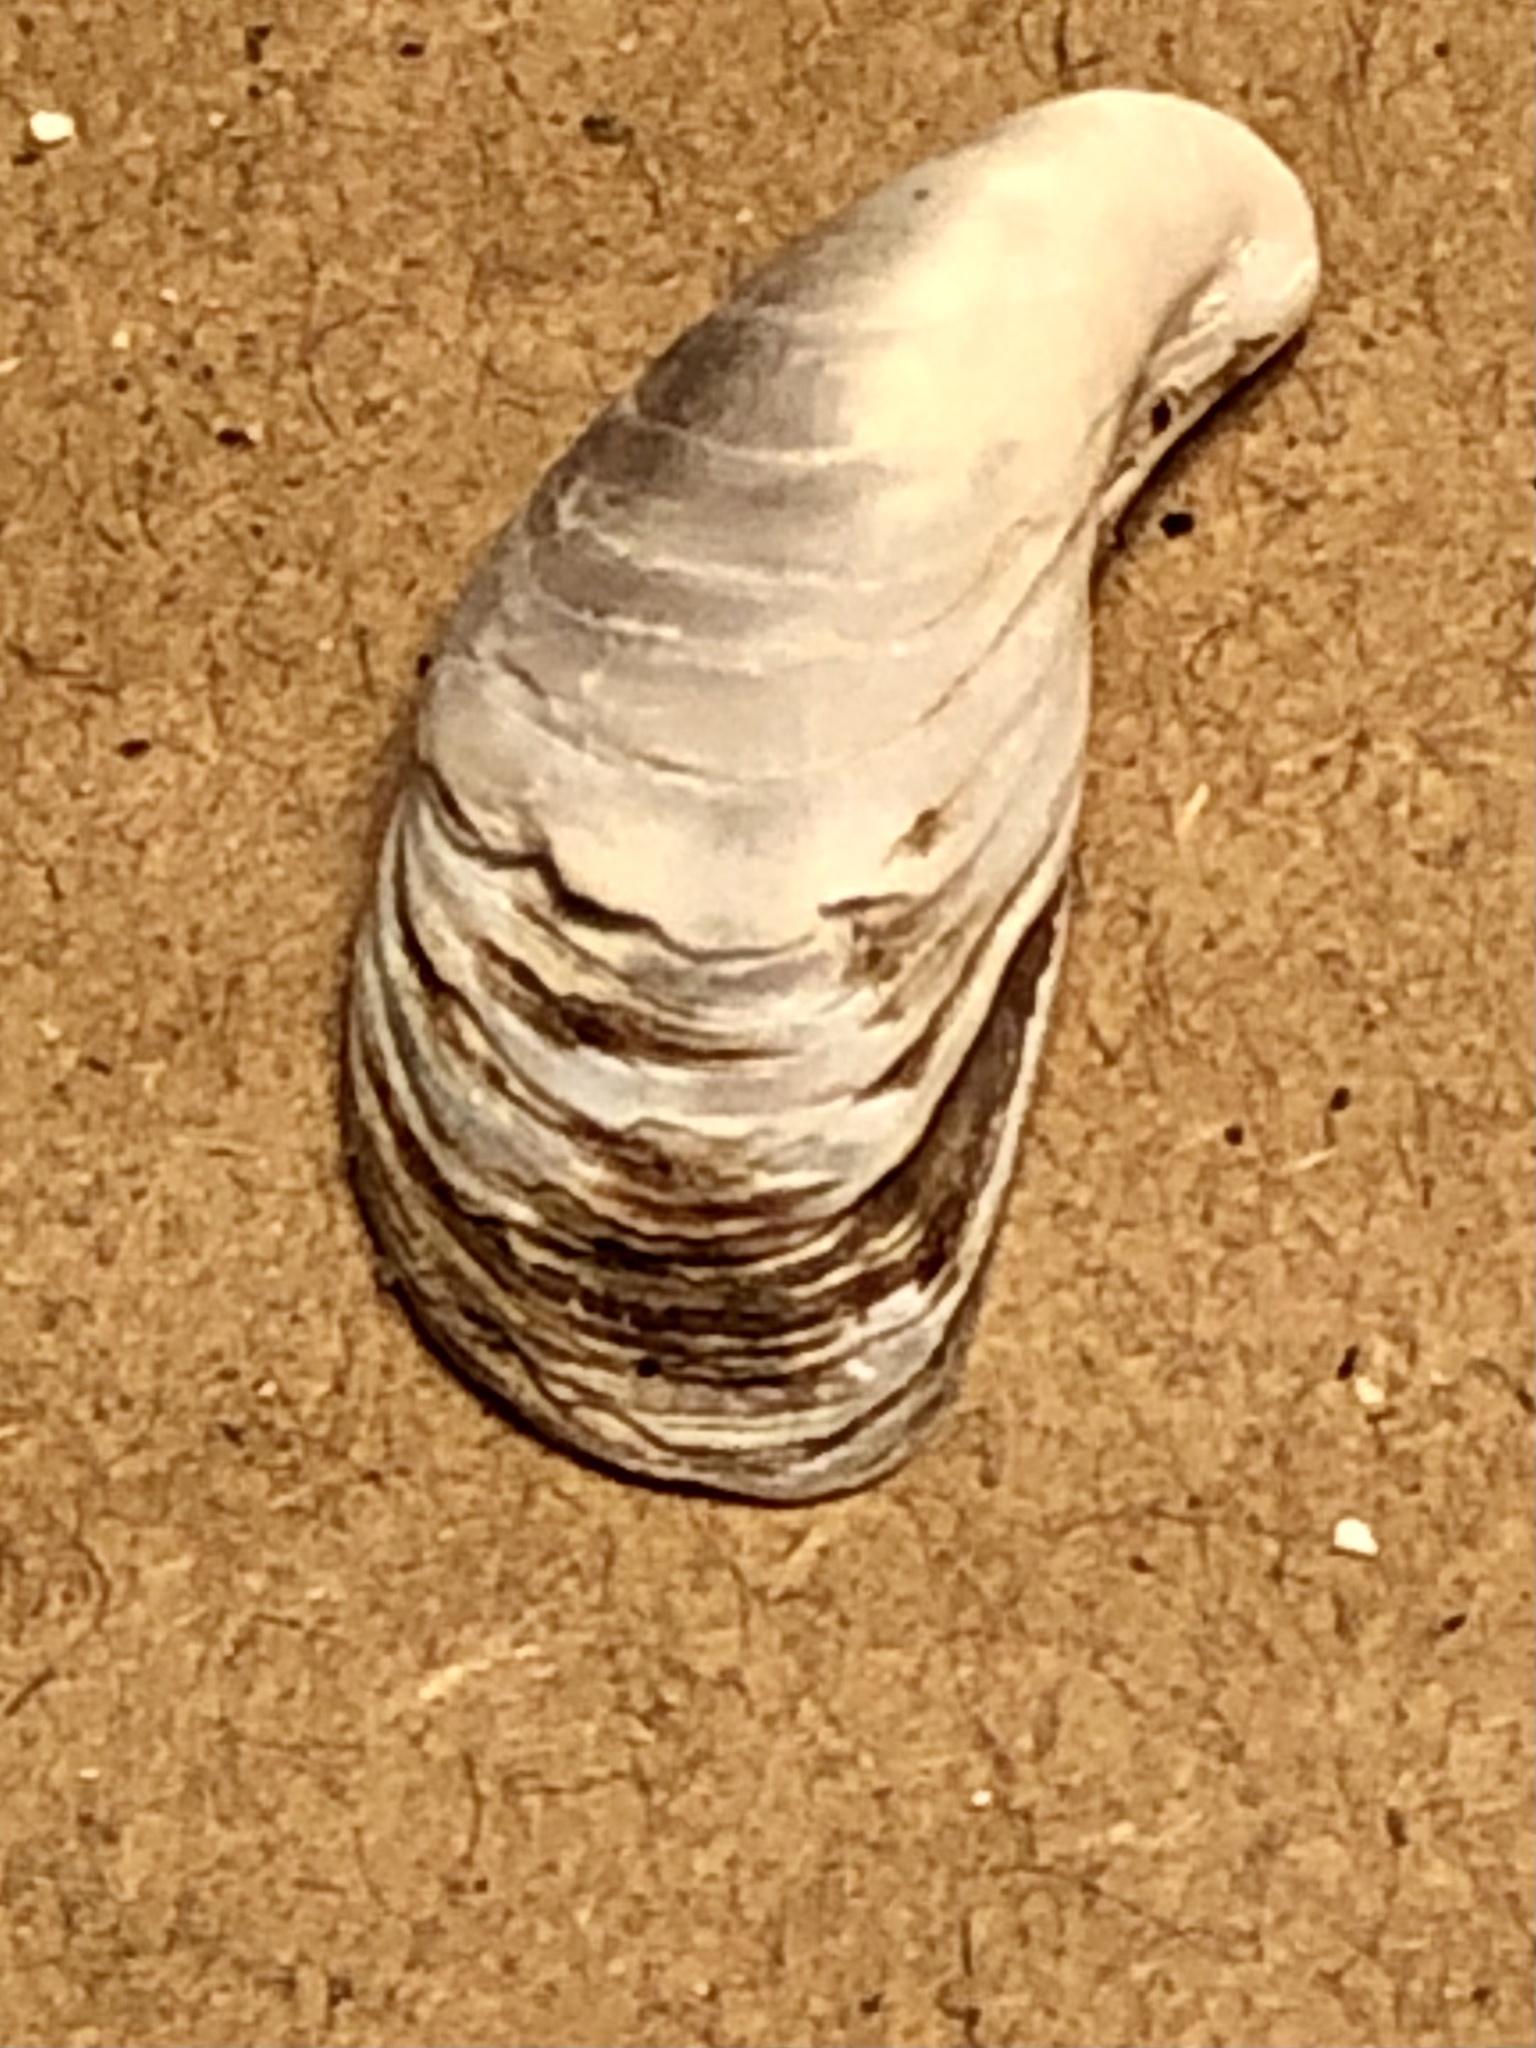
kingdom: Animalia
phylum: Mollusca
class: Bivalvia
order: Myida
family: Dreissenidae
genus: Dreissena
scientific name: Dreissena bugensis
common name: Quagga mussel
